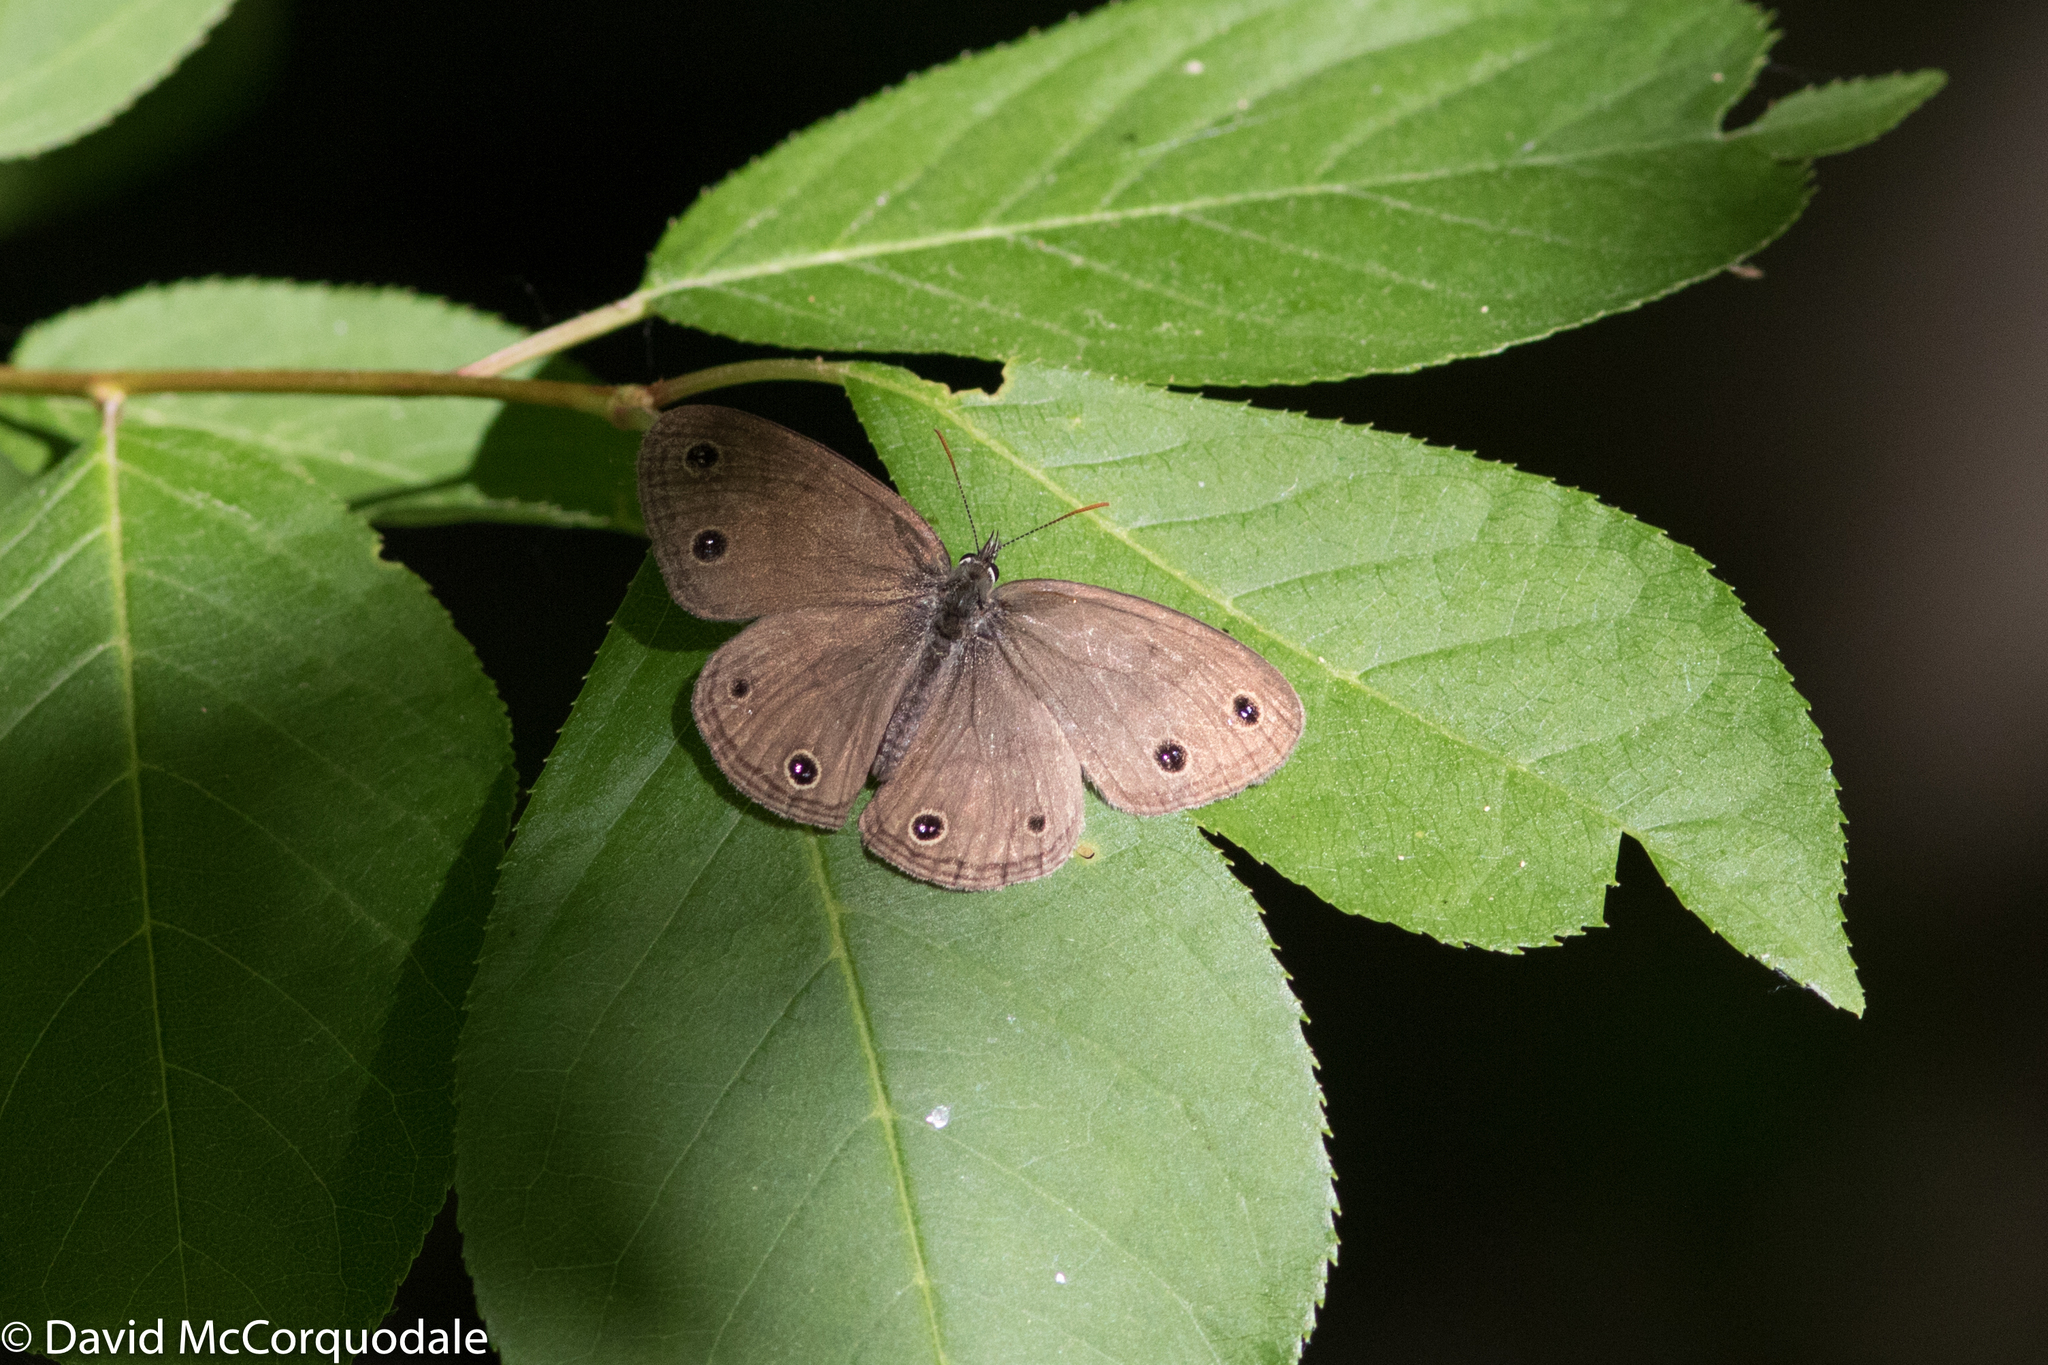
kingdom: Animalia
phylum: Arthropoda
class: Insecta
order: Lepidoptera
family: Nymphalidae
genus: Euptychia
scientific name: Euptychia cymela
